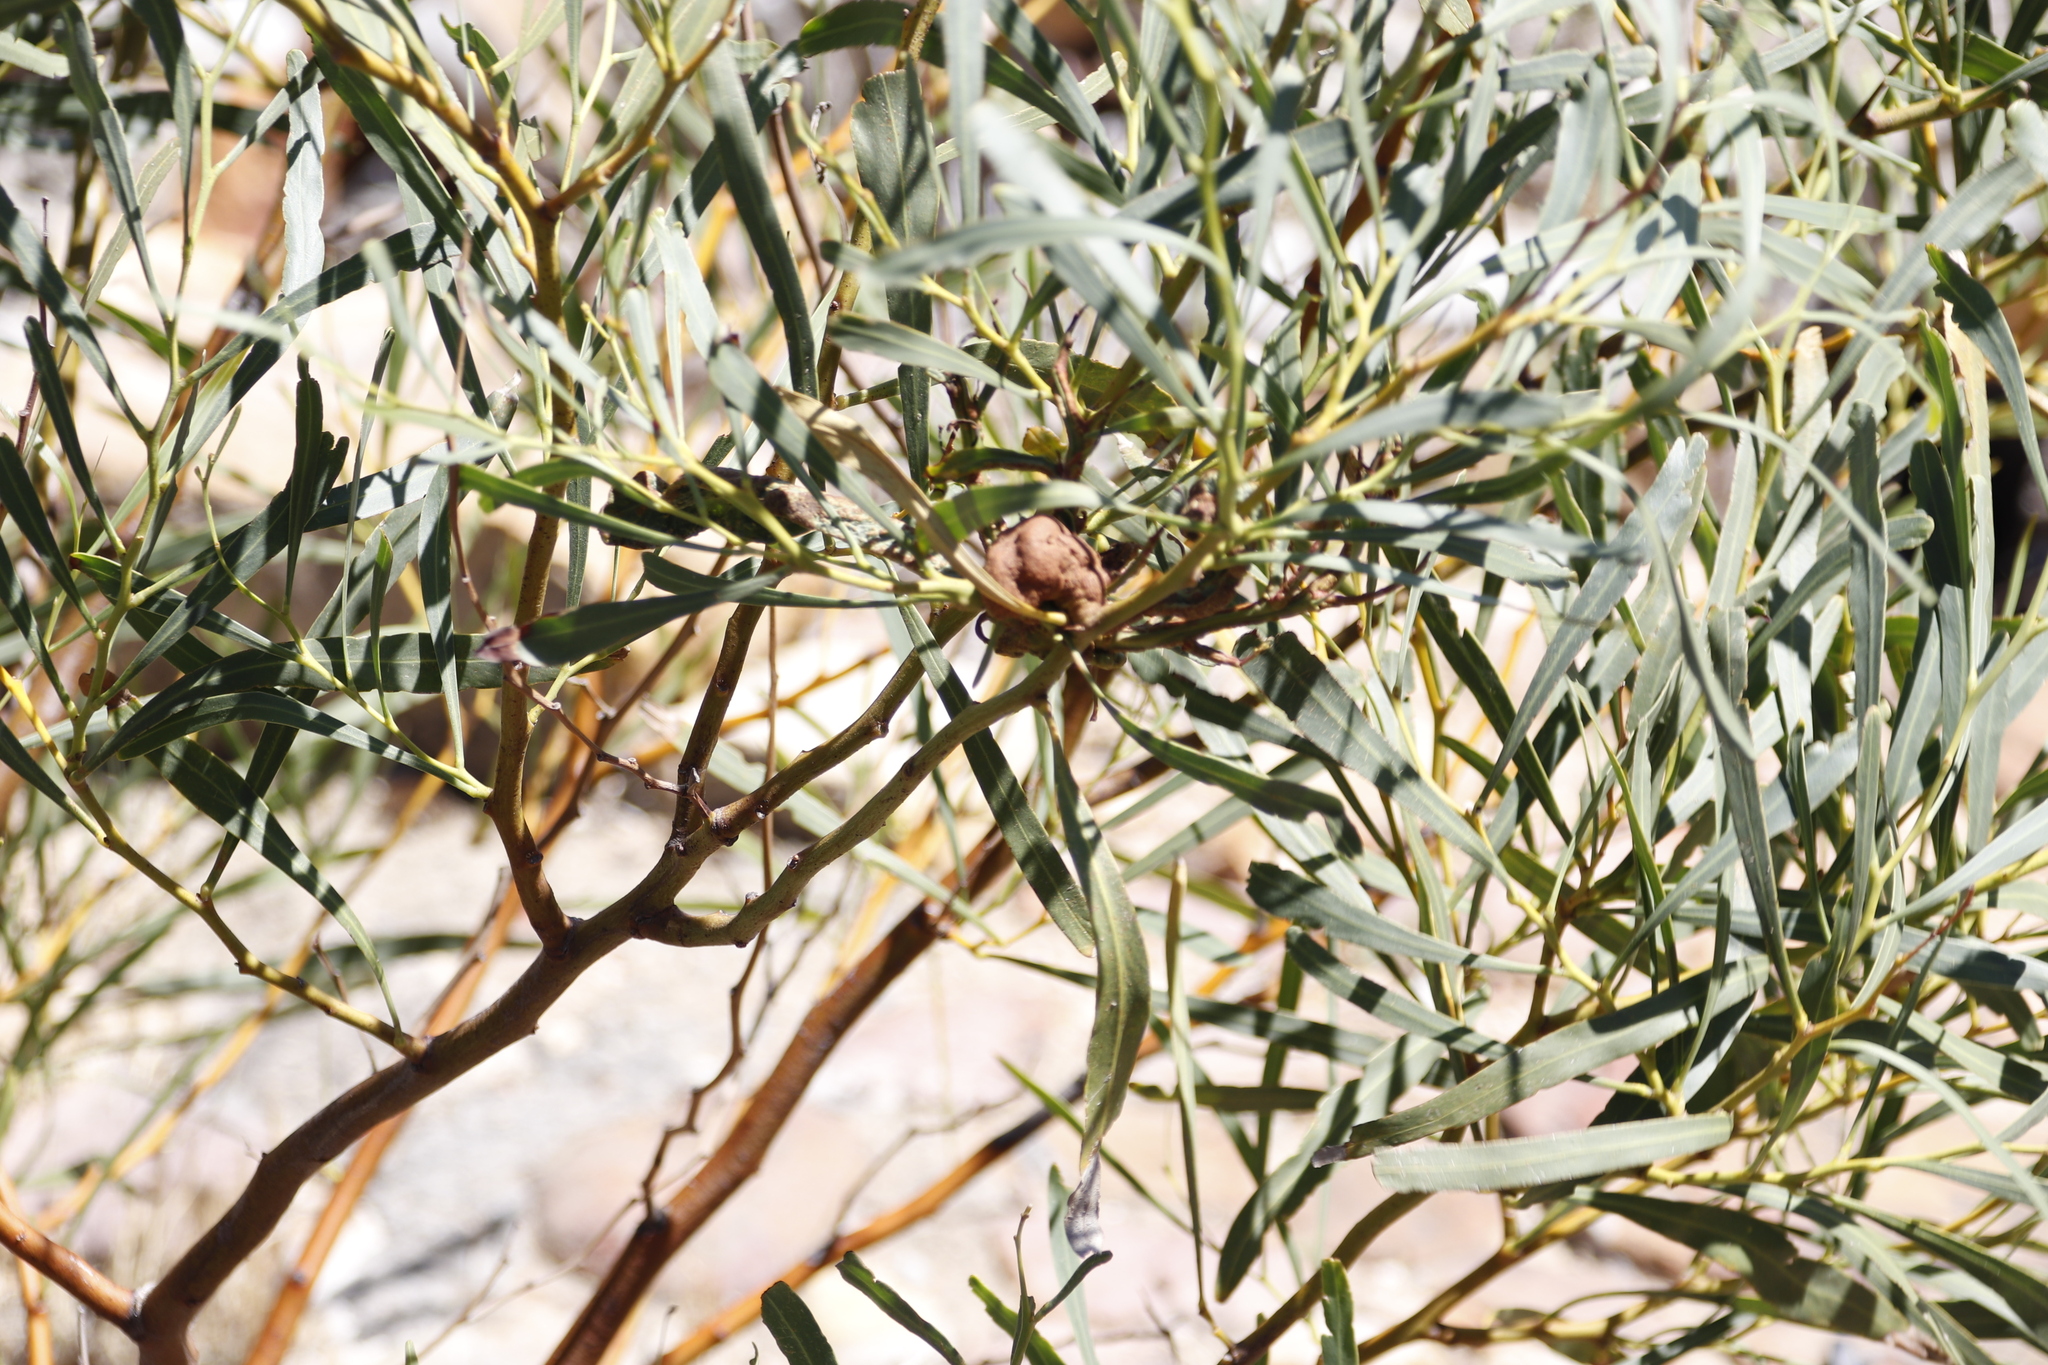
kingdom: Fungi
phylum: Basidiomycota
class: Pucciniomycetes
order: Pucciniales
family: Uromycladiaceae
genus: Uromycladium
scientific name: Uromycladium morrisii
